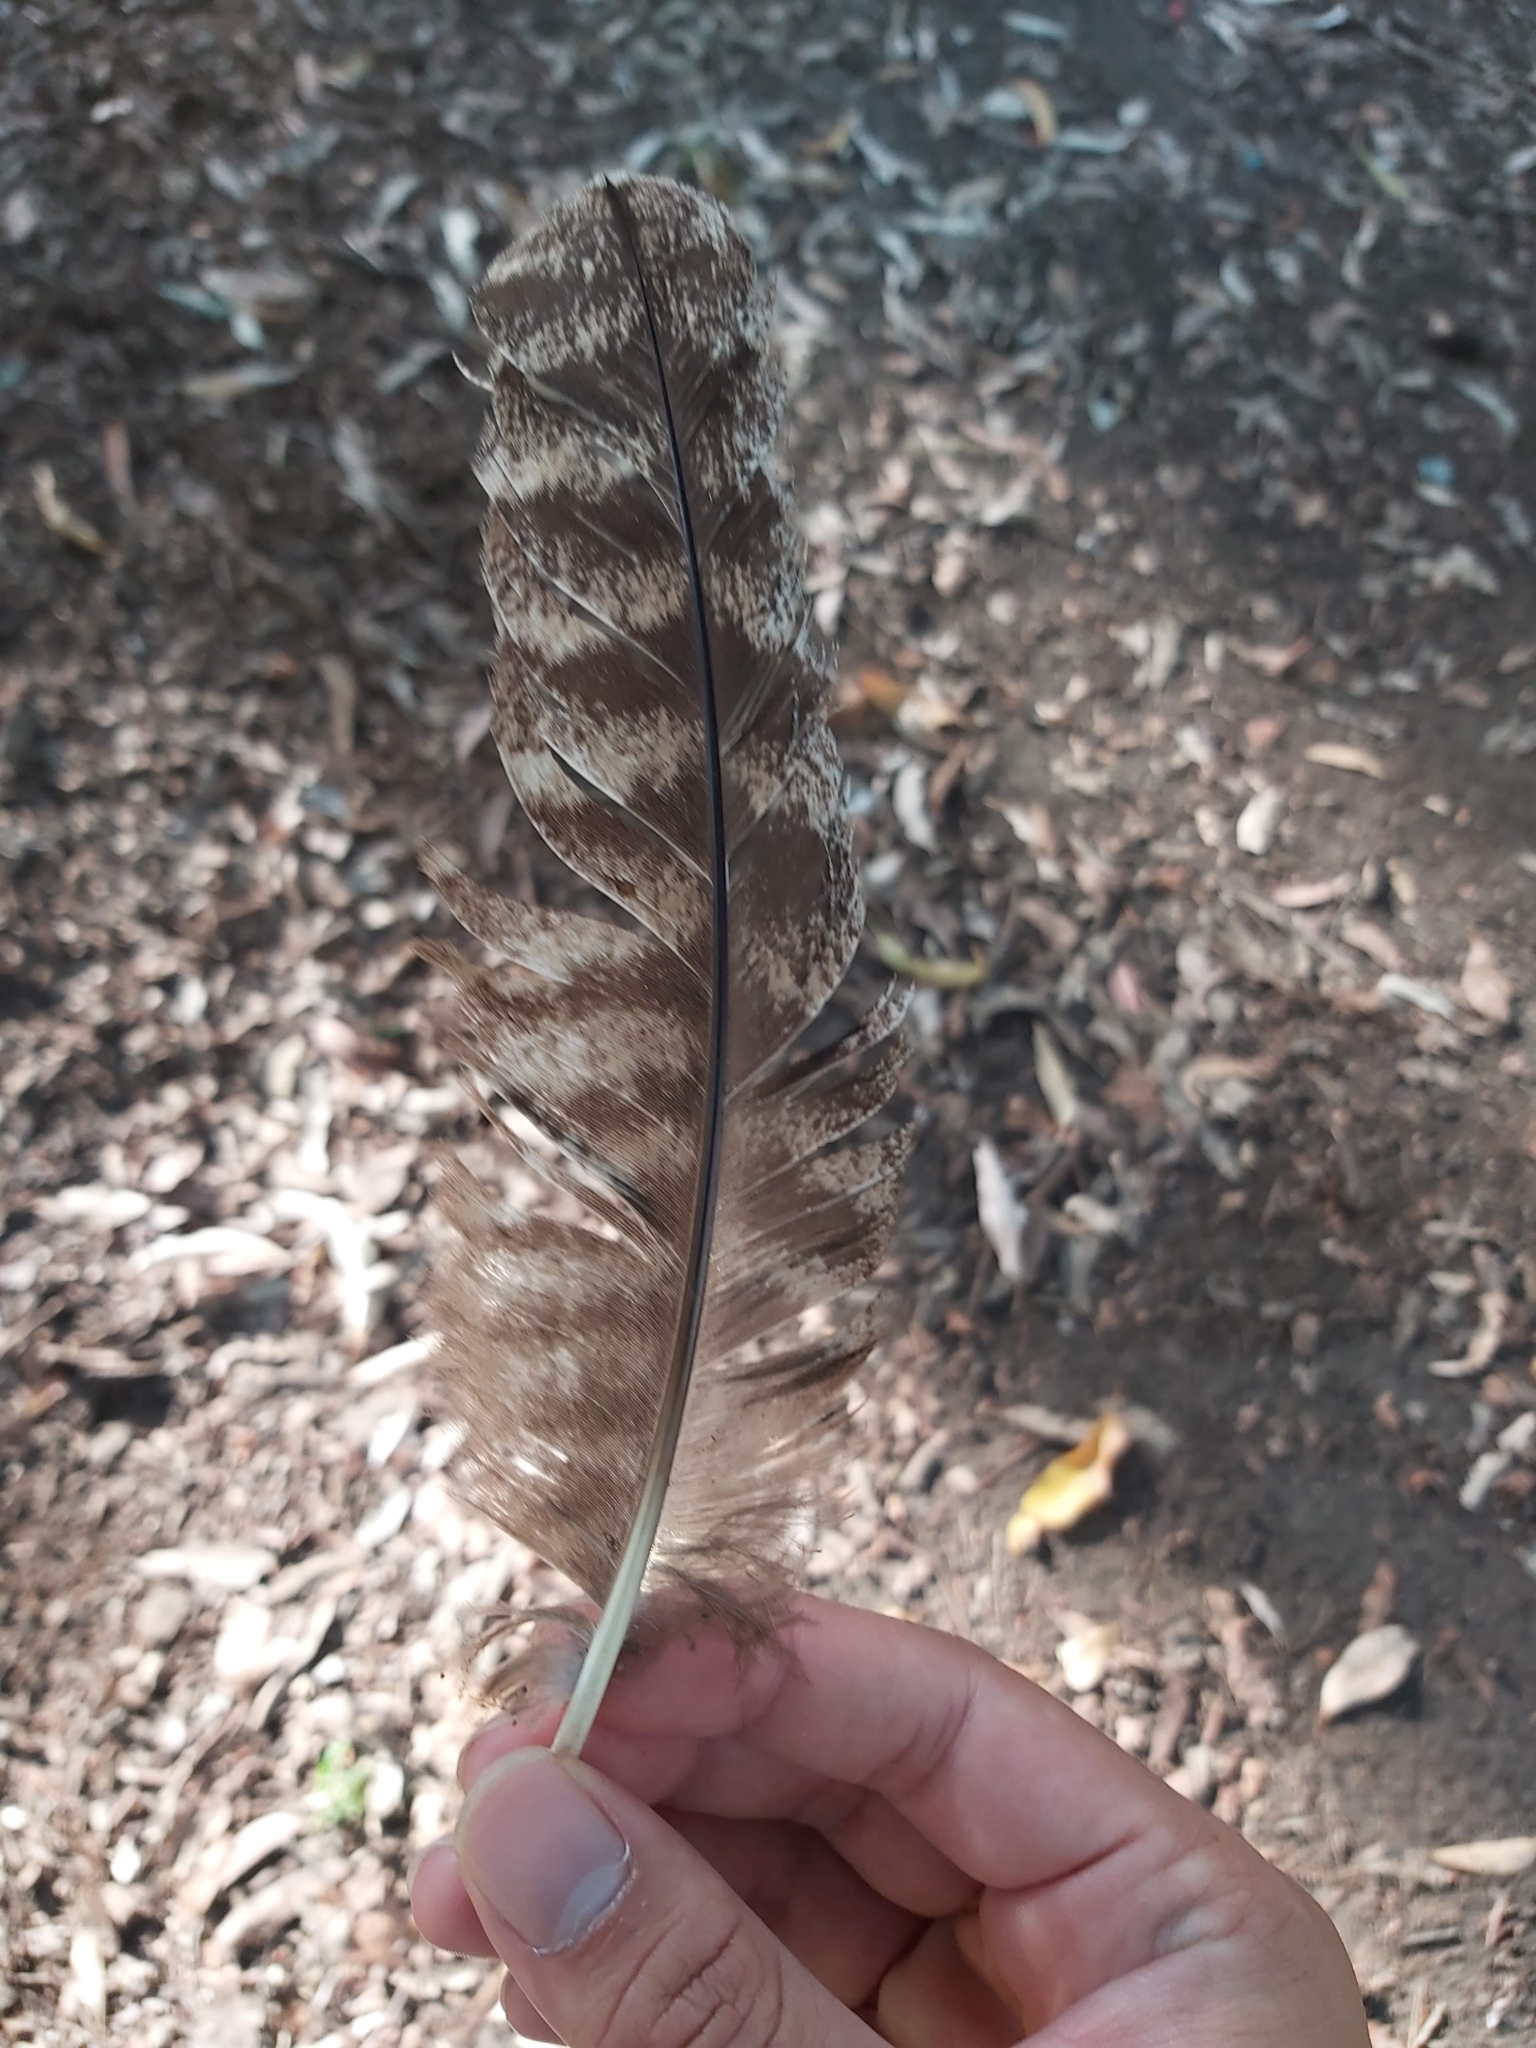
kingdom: Animalia
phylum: Chordata
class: Aves
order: Caprimulgiformes
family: Podargidae
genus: Podargus
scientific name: Podargus strigoides
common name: Tawny frogmouth
